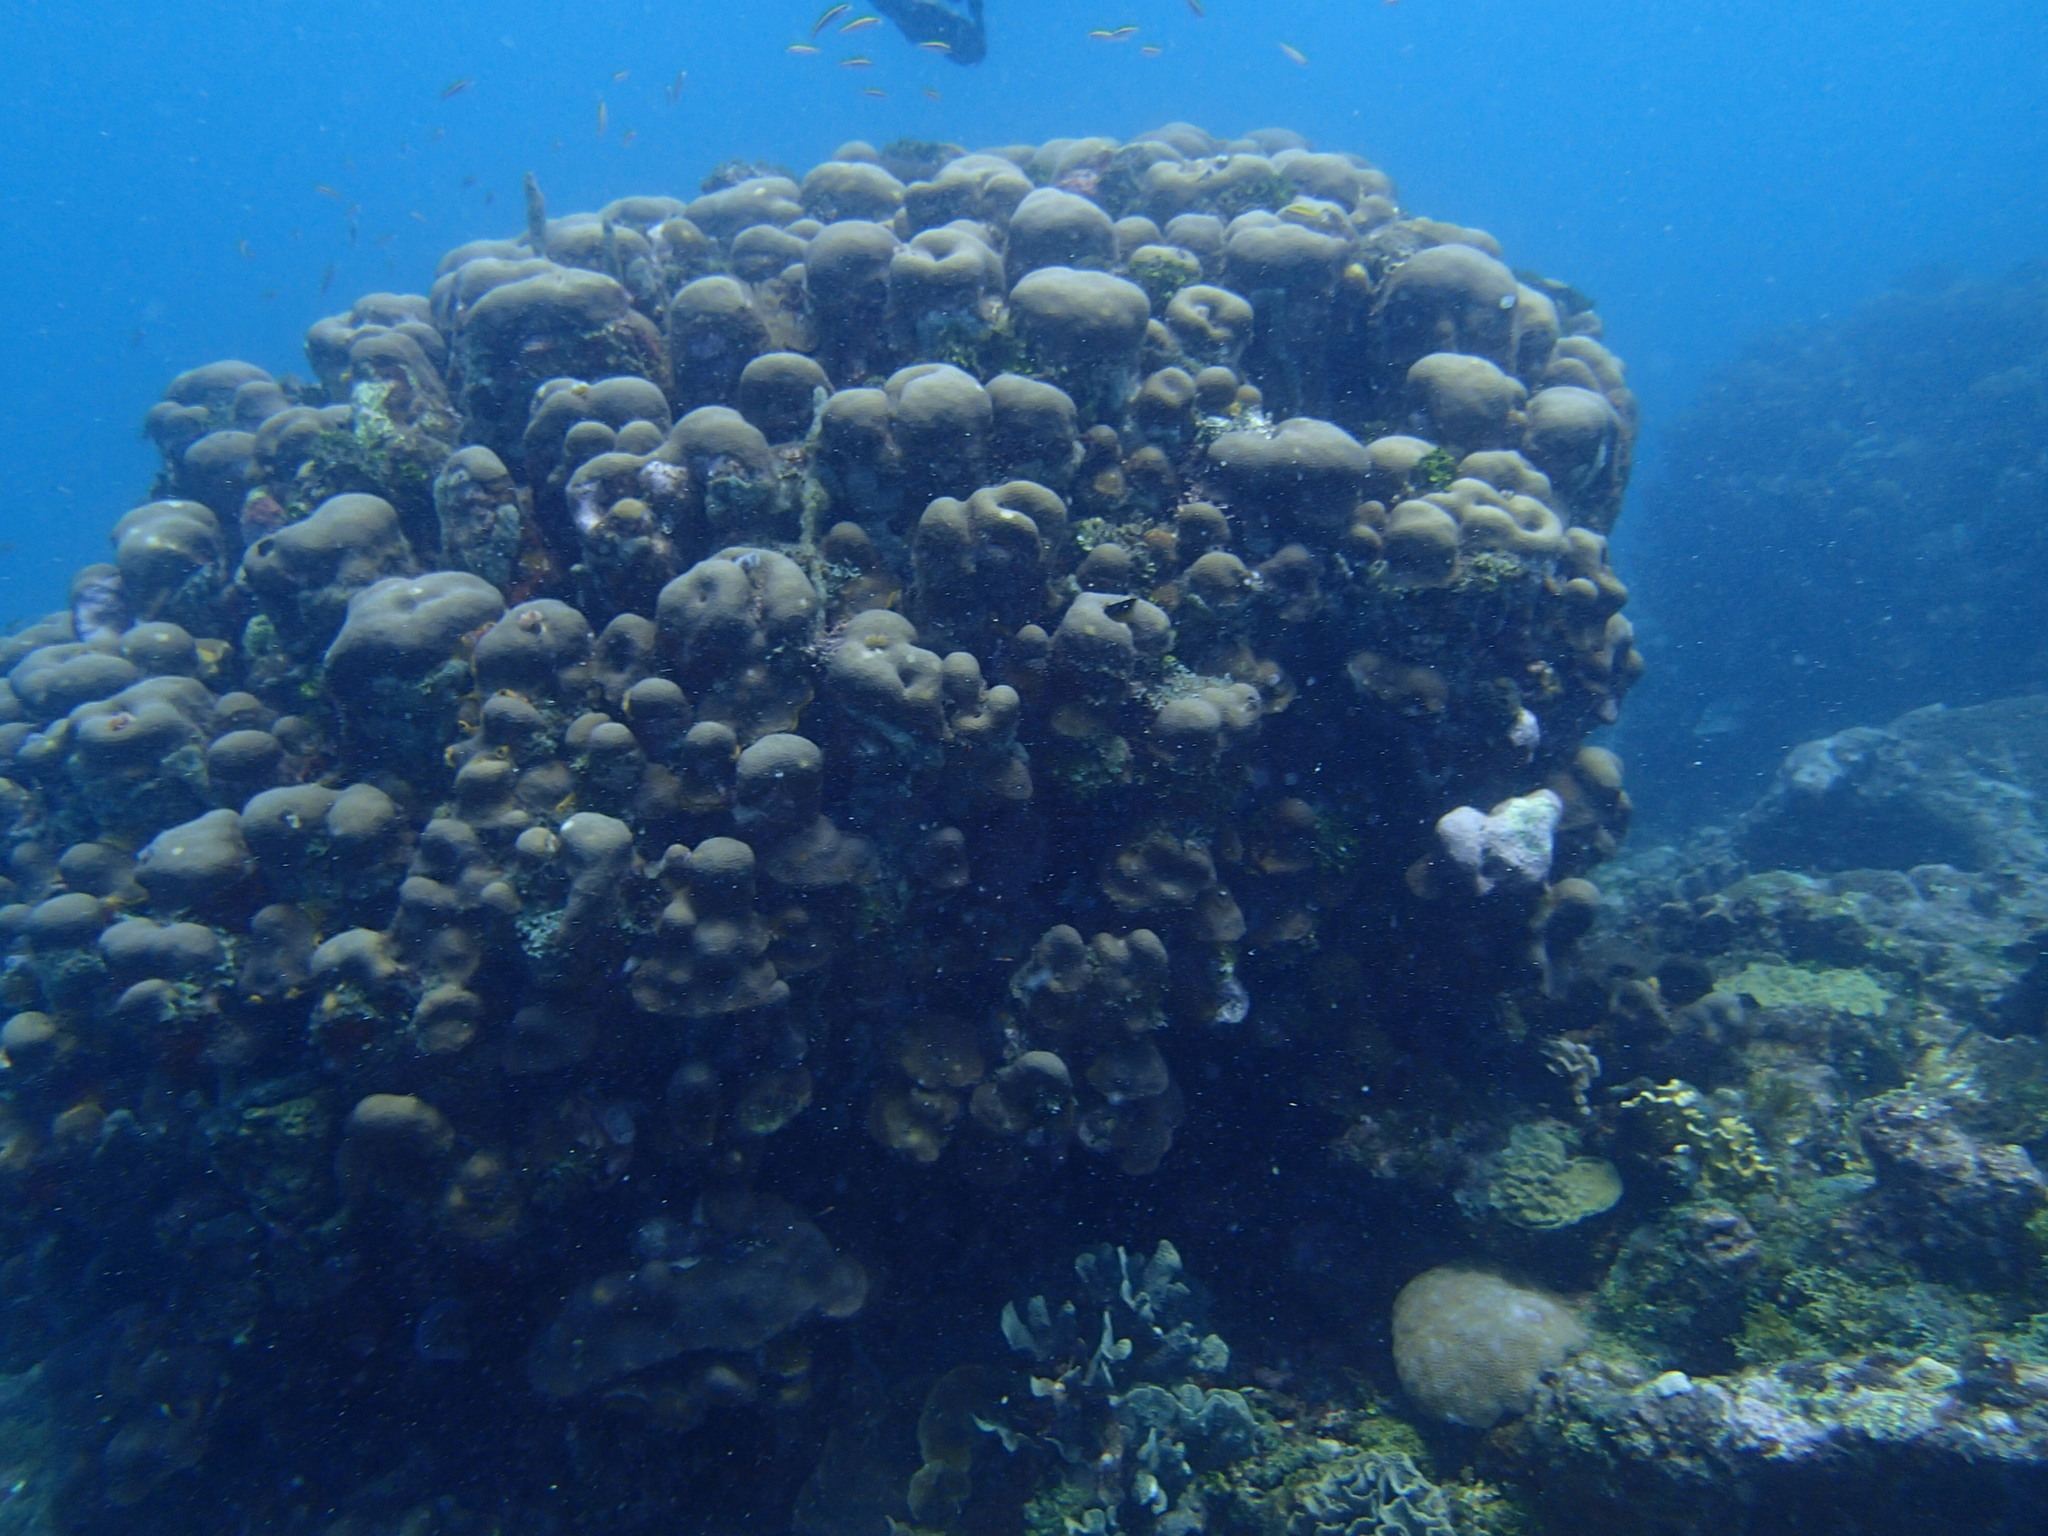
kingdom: Animalia
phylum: Cnidaria
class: Anthozoa
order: Scleractinia
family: Merulinidae
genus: Orbicella
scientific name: Orbicella annularis
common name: Boulder star coral
